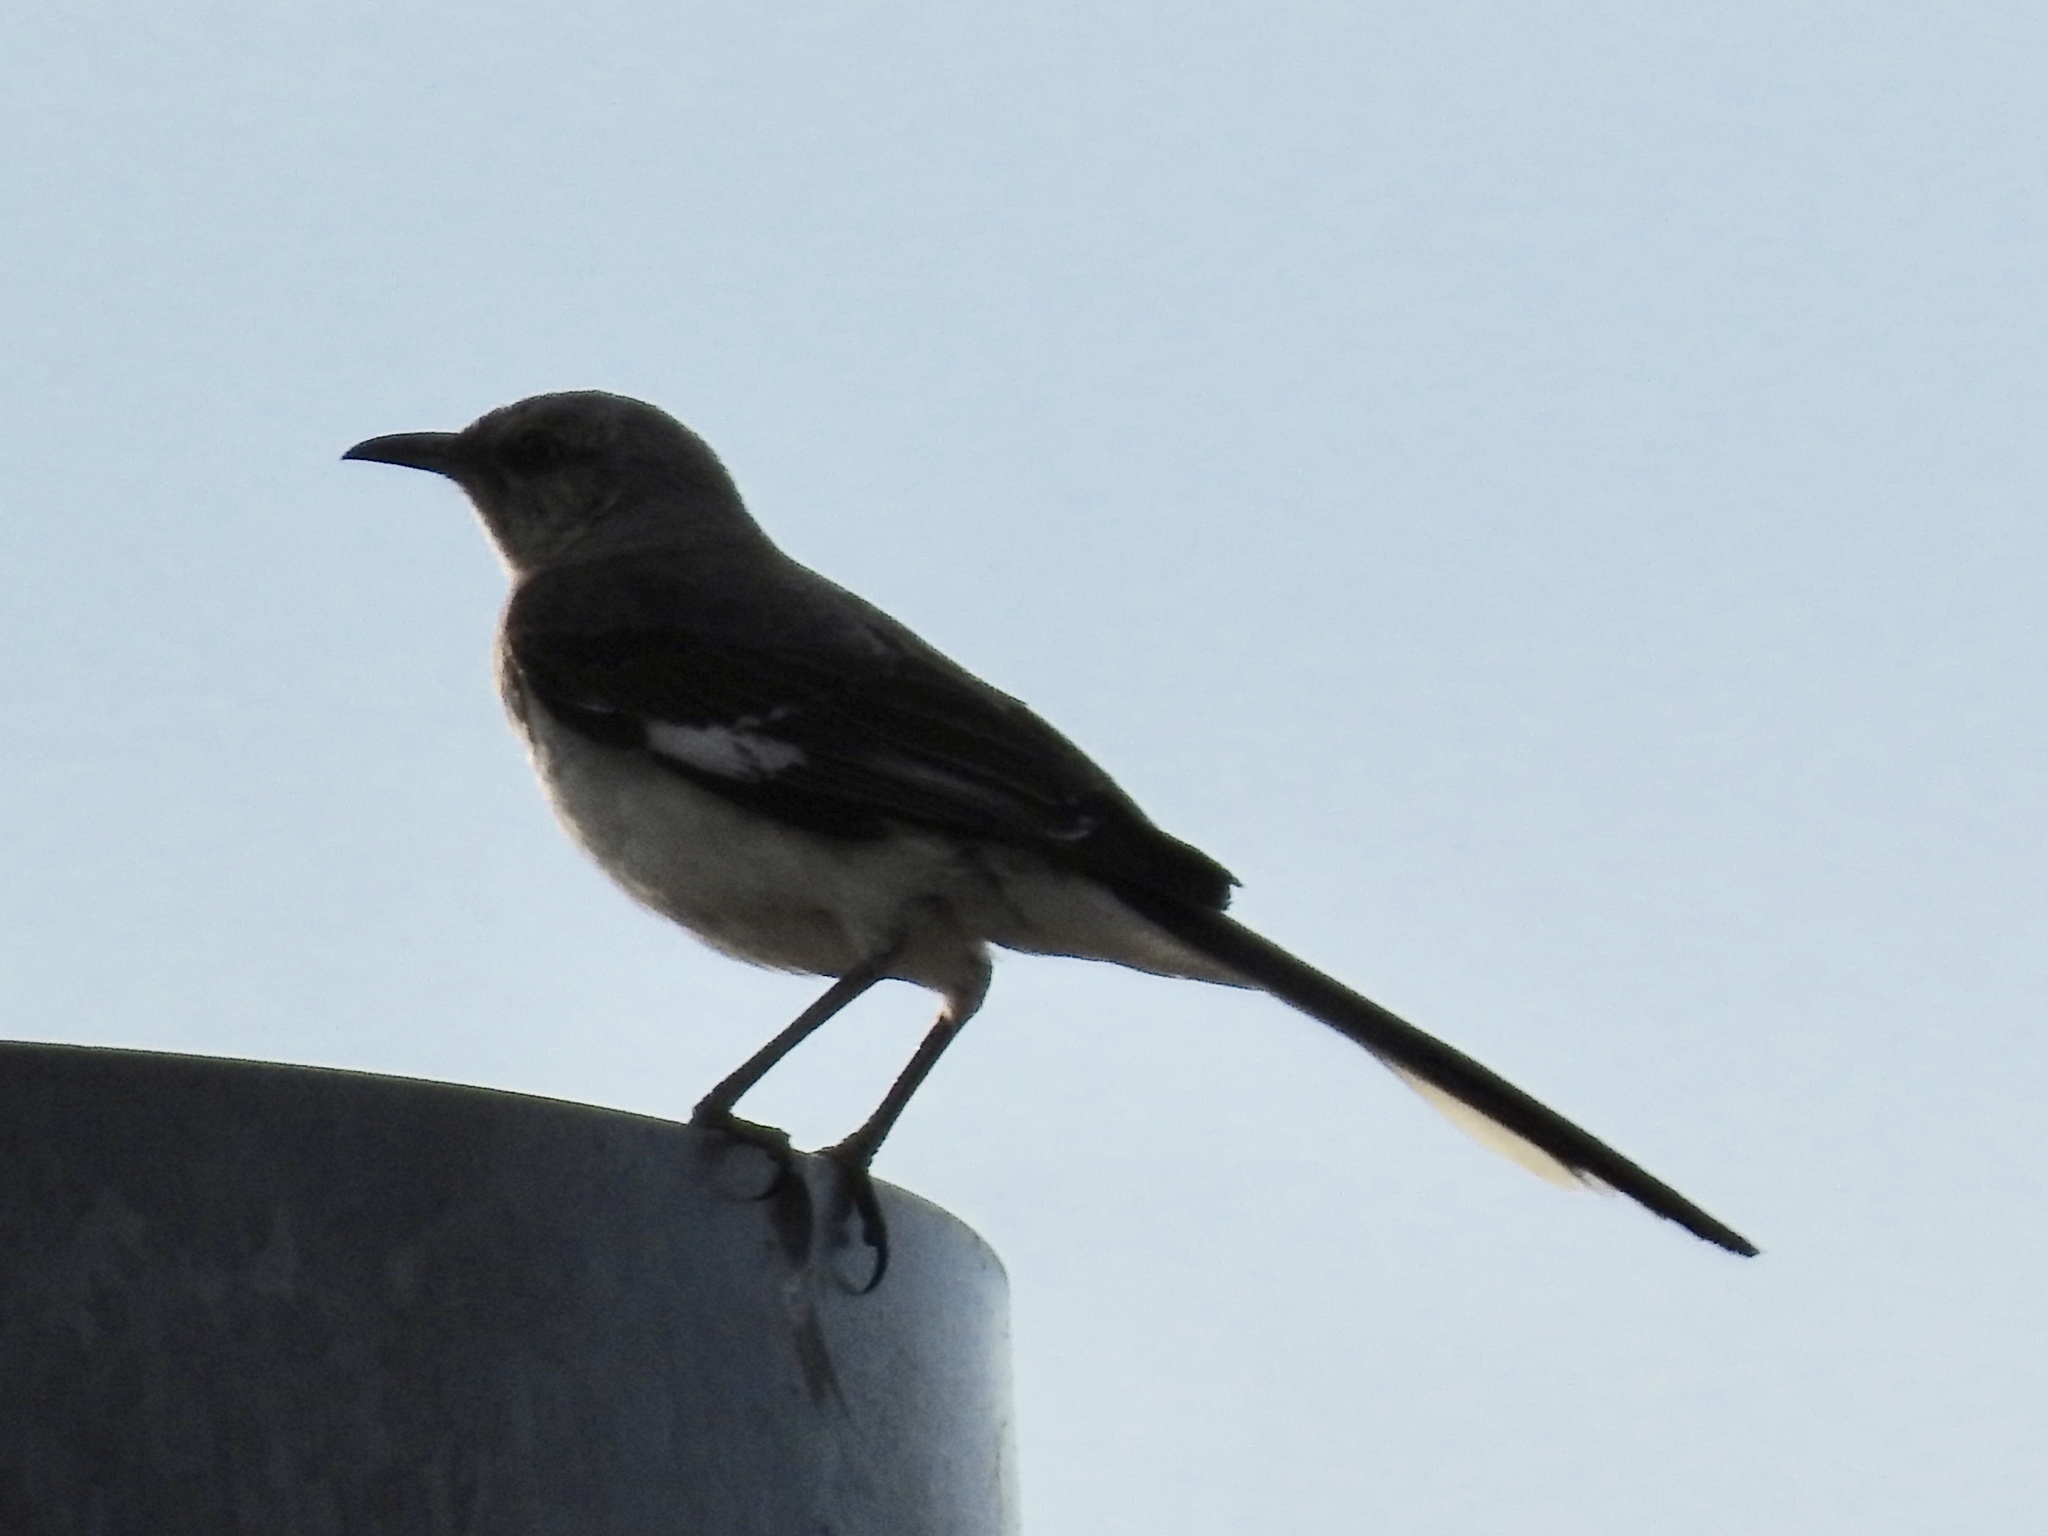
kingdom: Animalia
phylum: Chordata
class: Aves
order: Passeriformes
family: Mimidae
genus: Mimus
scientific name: Mimus polyglottos
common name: Northern mockingbird
